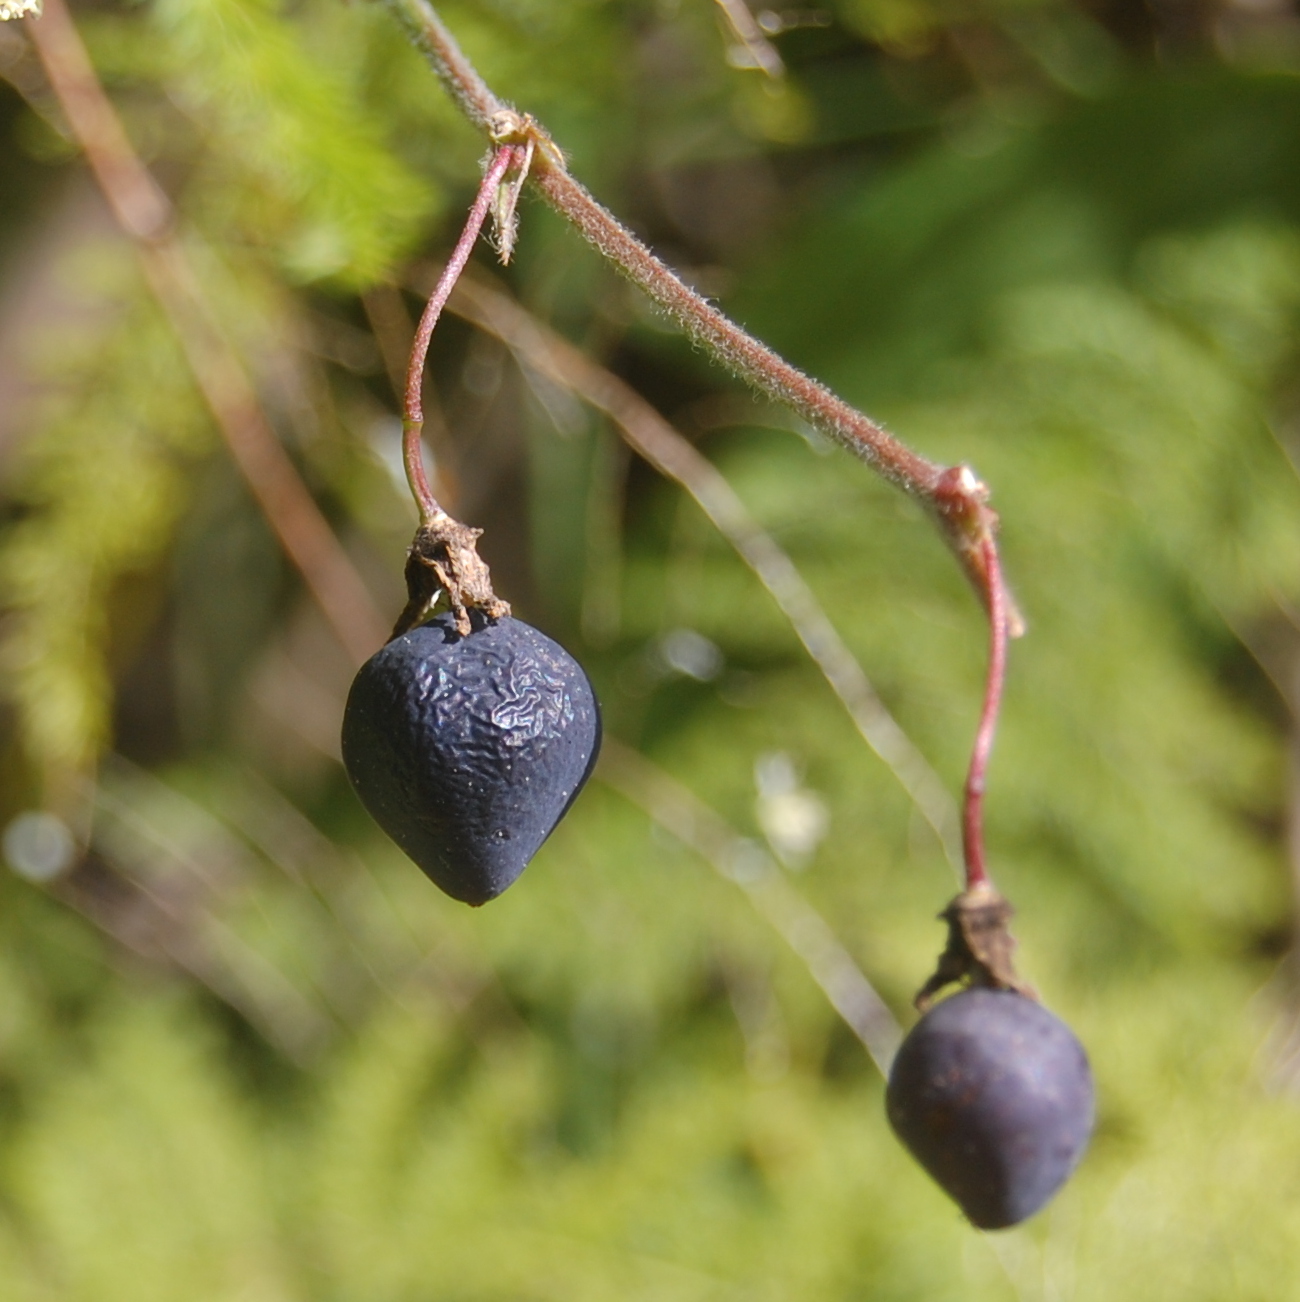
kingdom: Plantae
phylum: Tracheophyta
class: Magnoliopsida
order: Malpighiales
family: Passifloraceae
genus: Passiflora
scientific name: Passiflora suberosa
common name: Wild passionfruit
